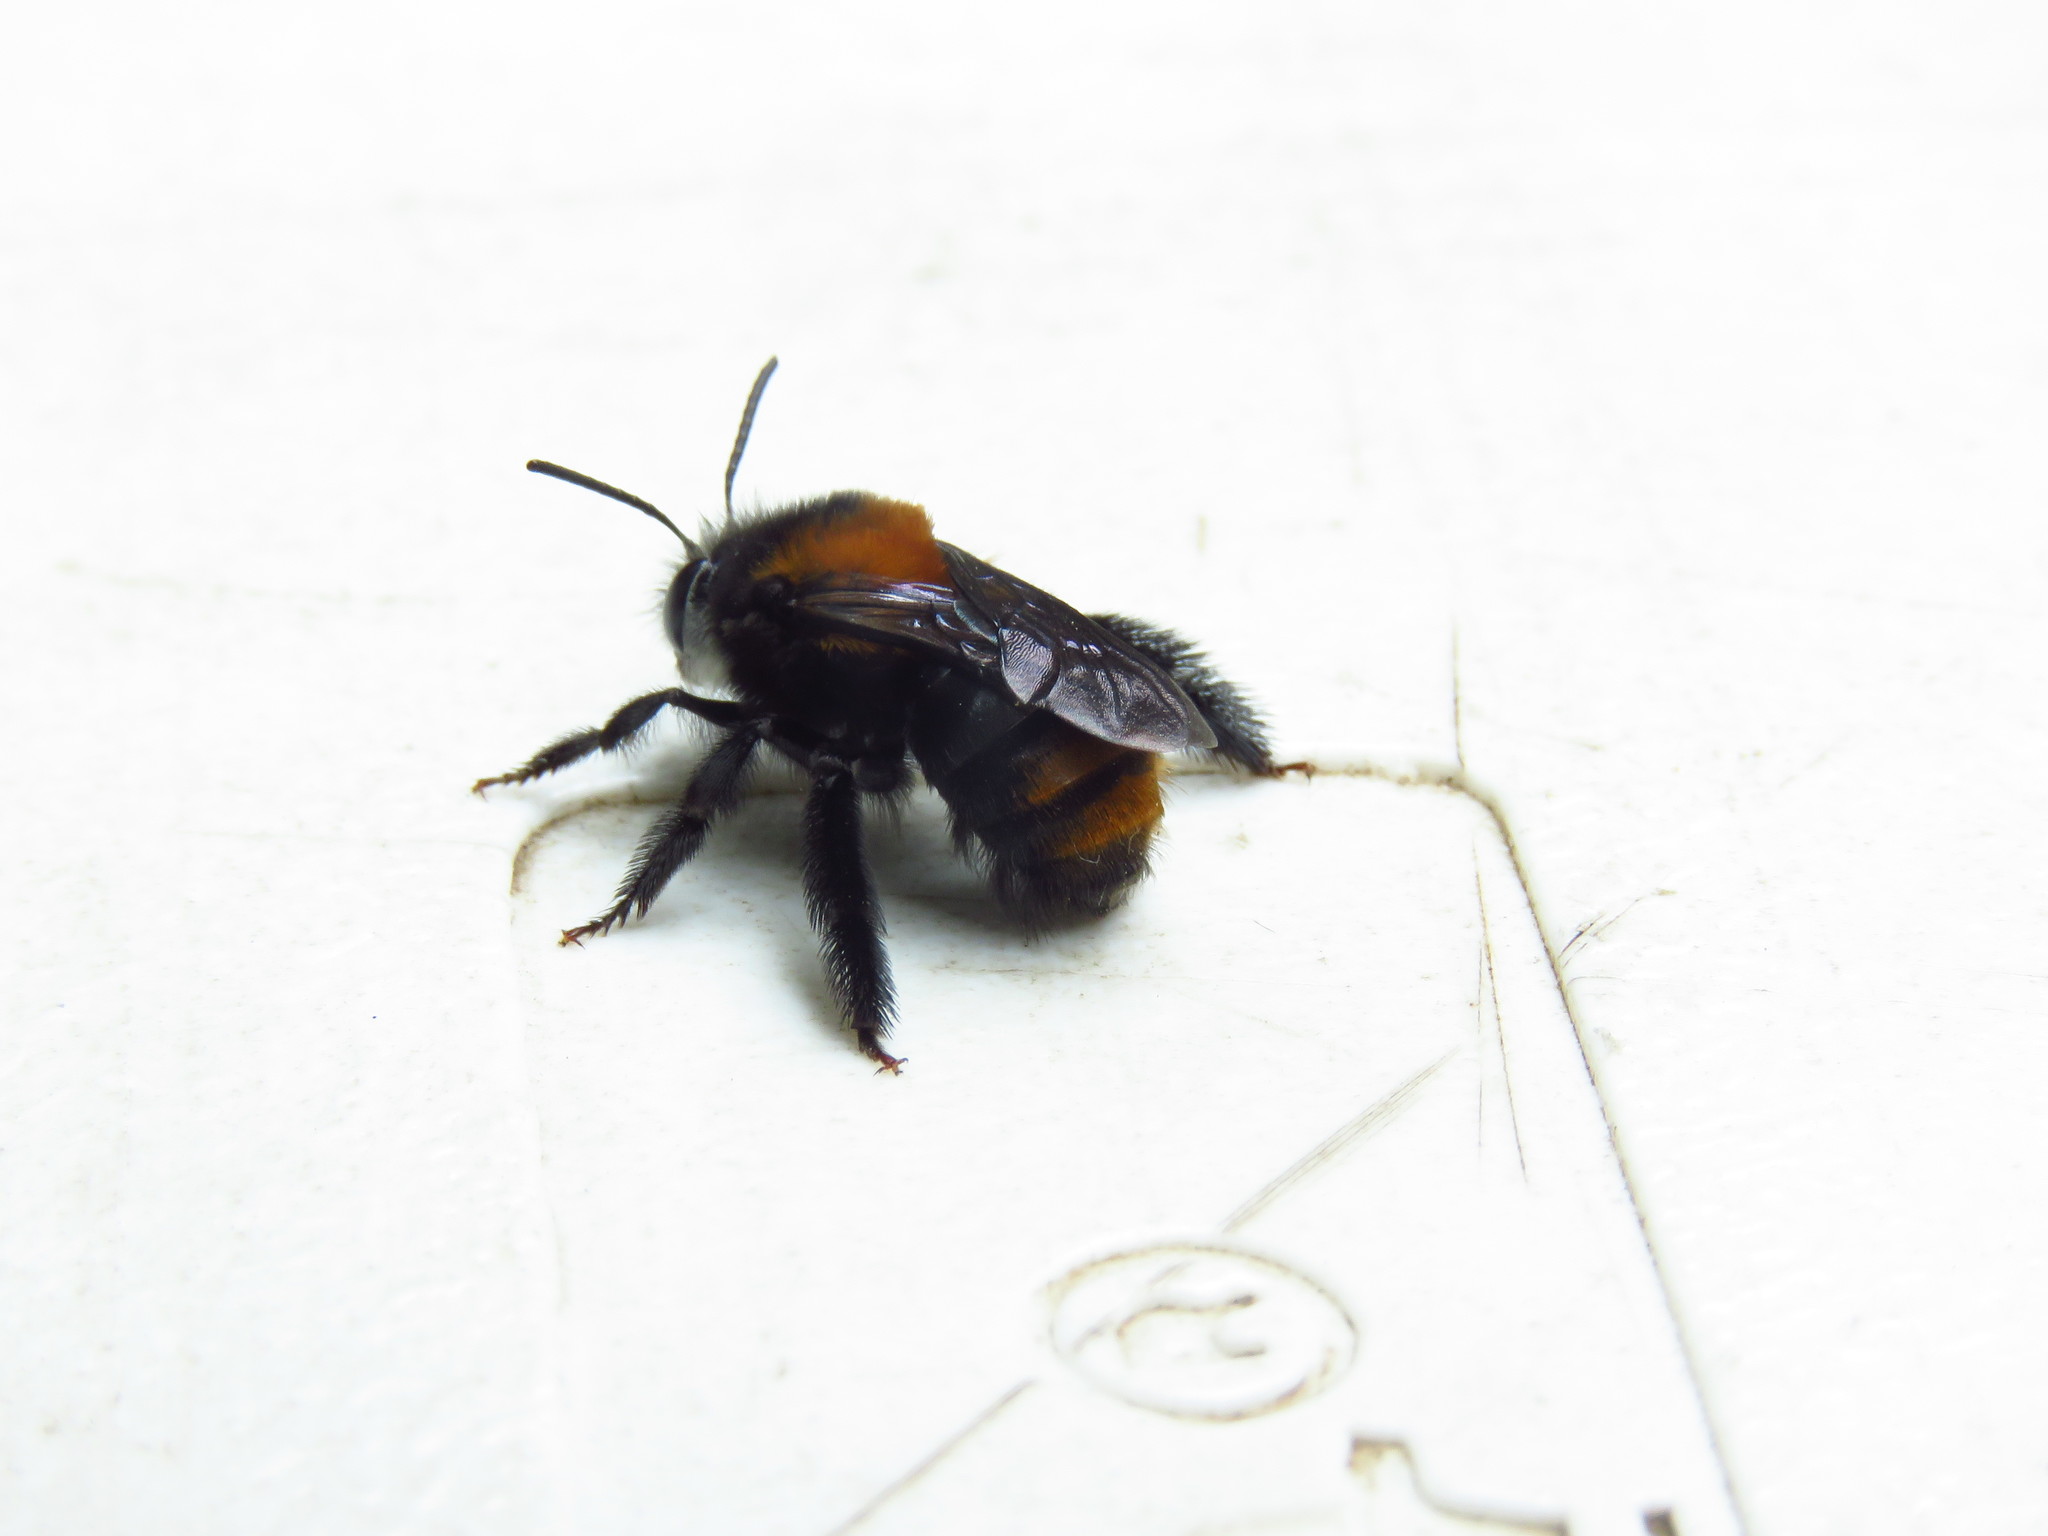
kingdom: Animalia
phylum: Arthropoda
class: Insecta
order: Hymenoptera
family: Apidae
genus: Thygater
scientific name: Thygater aethiops
